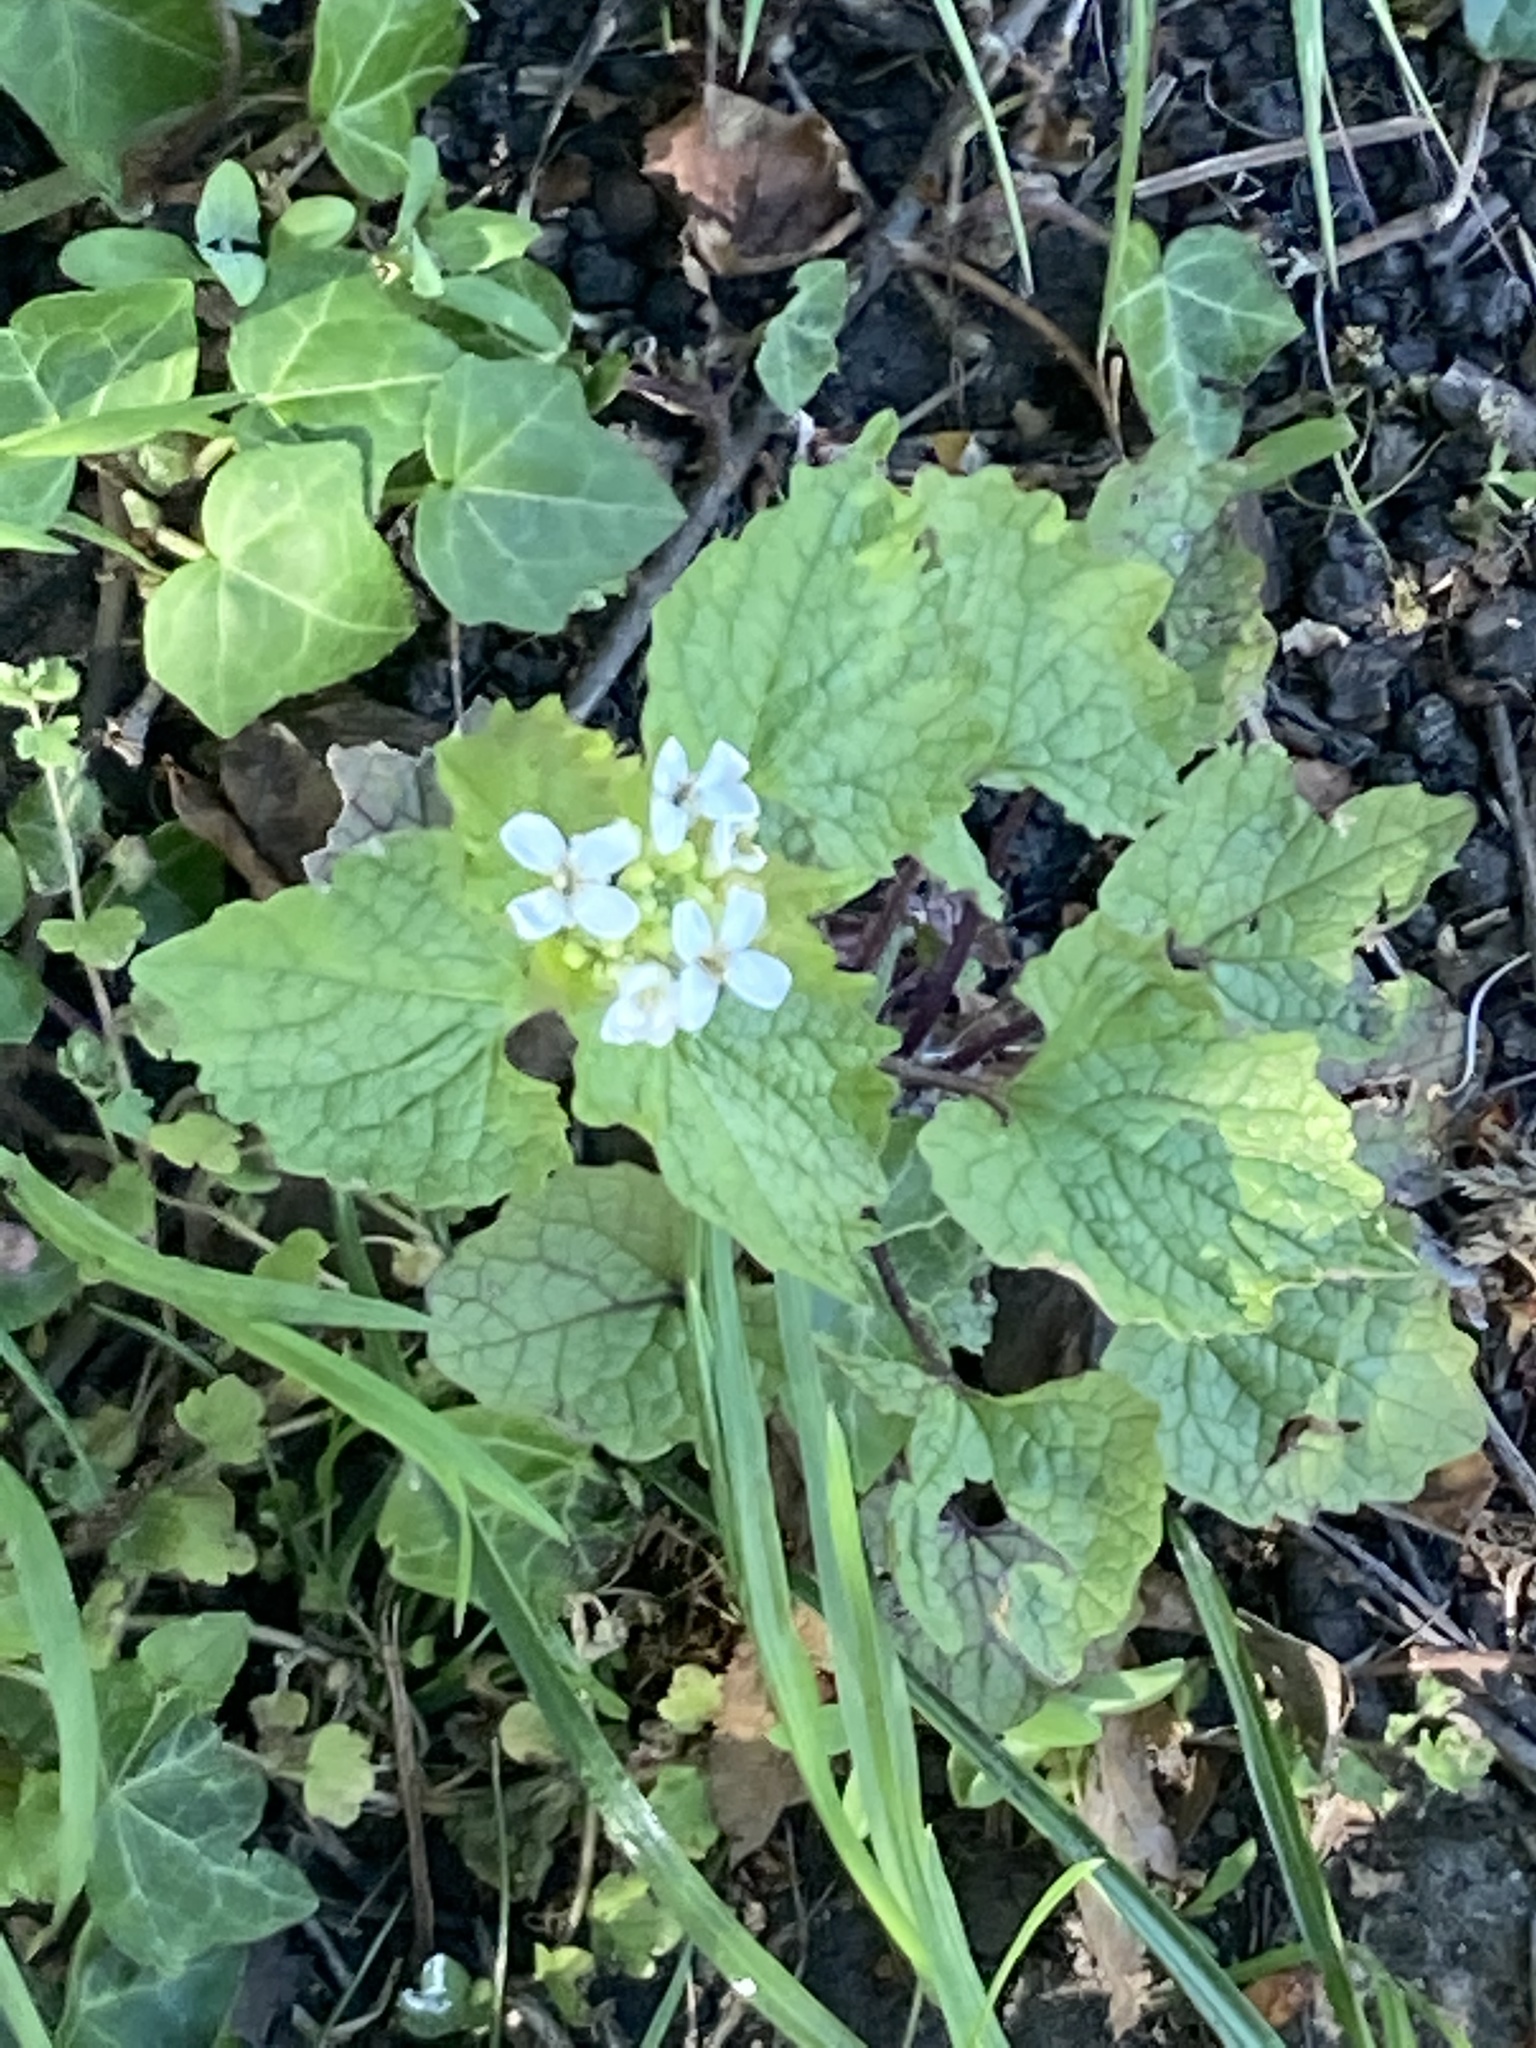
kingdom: Plantae
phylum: Tracheophyta
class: Magnoliopsida
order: Brassicales
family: Brassicaceae
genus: Alliaria
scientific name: Alliaria petiolata
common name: Garlic mustard
